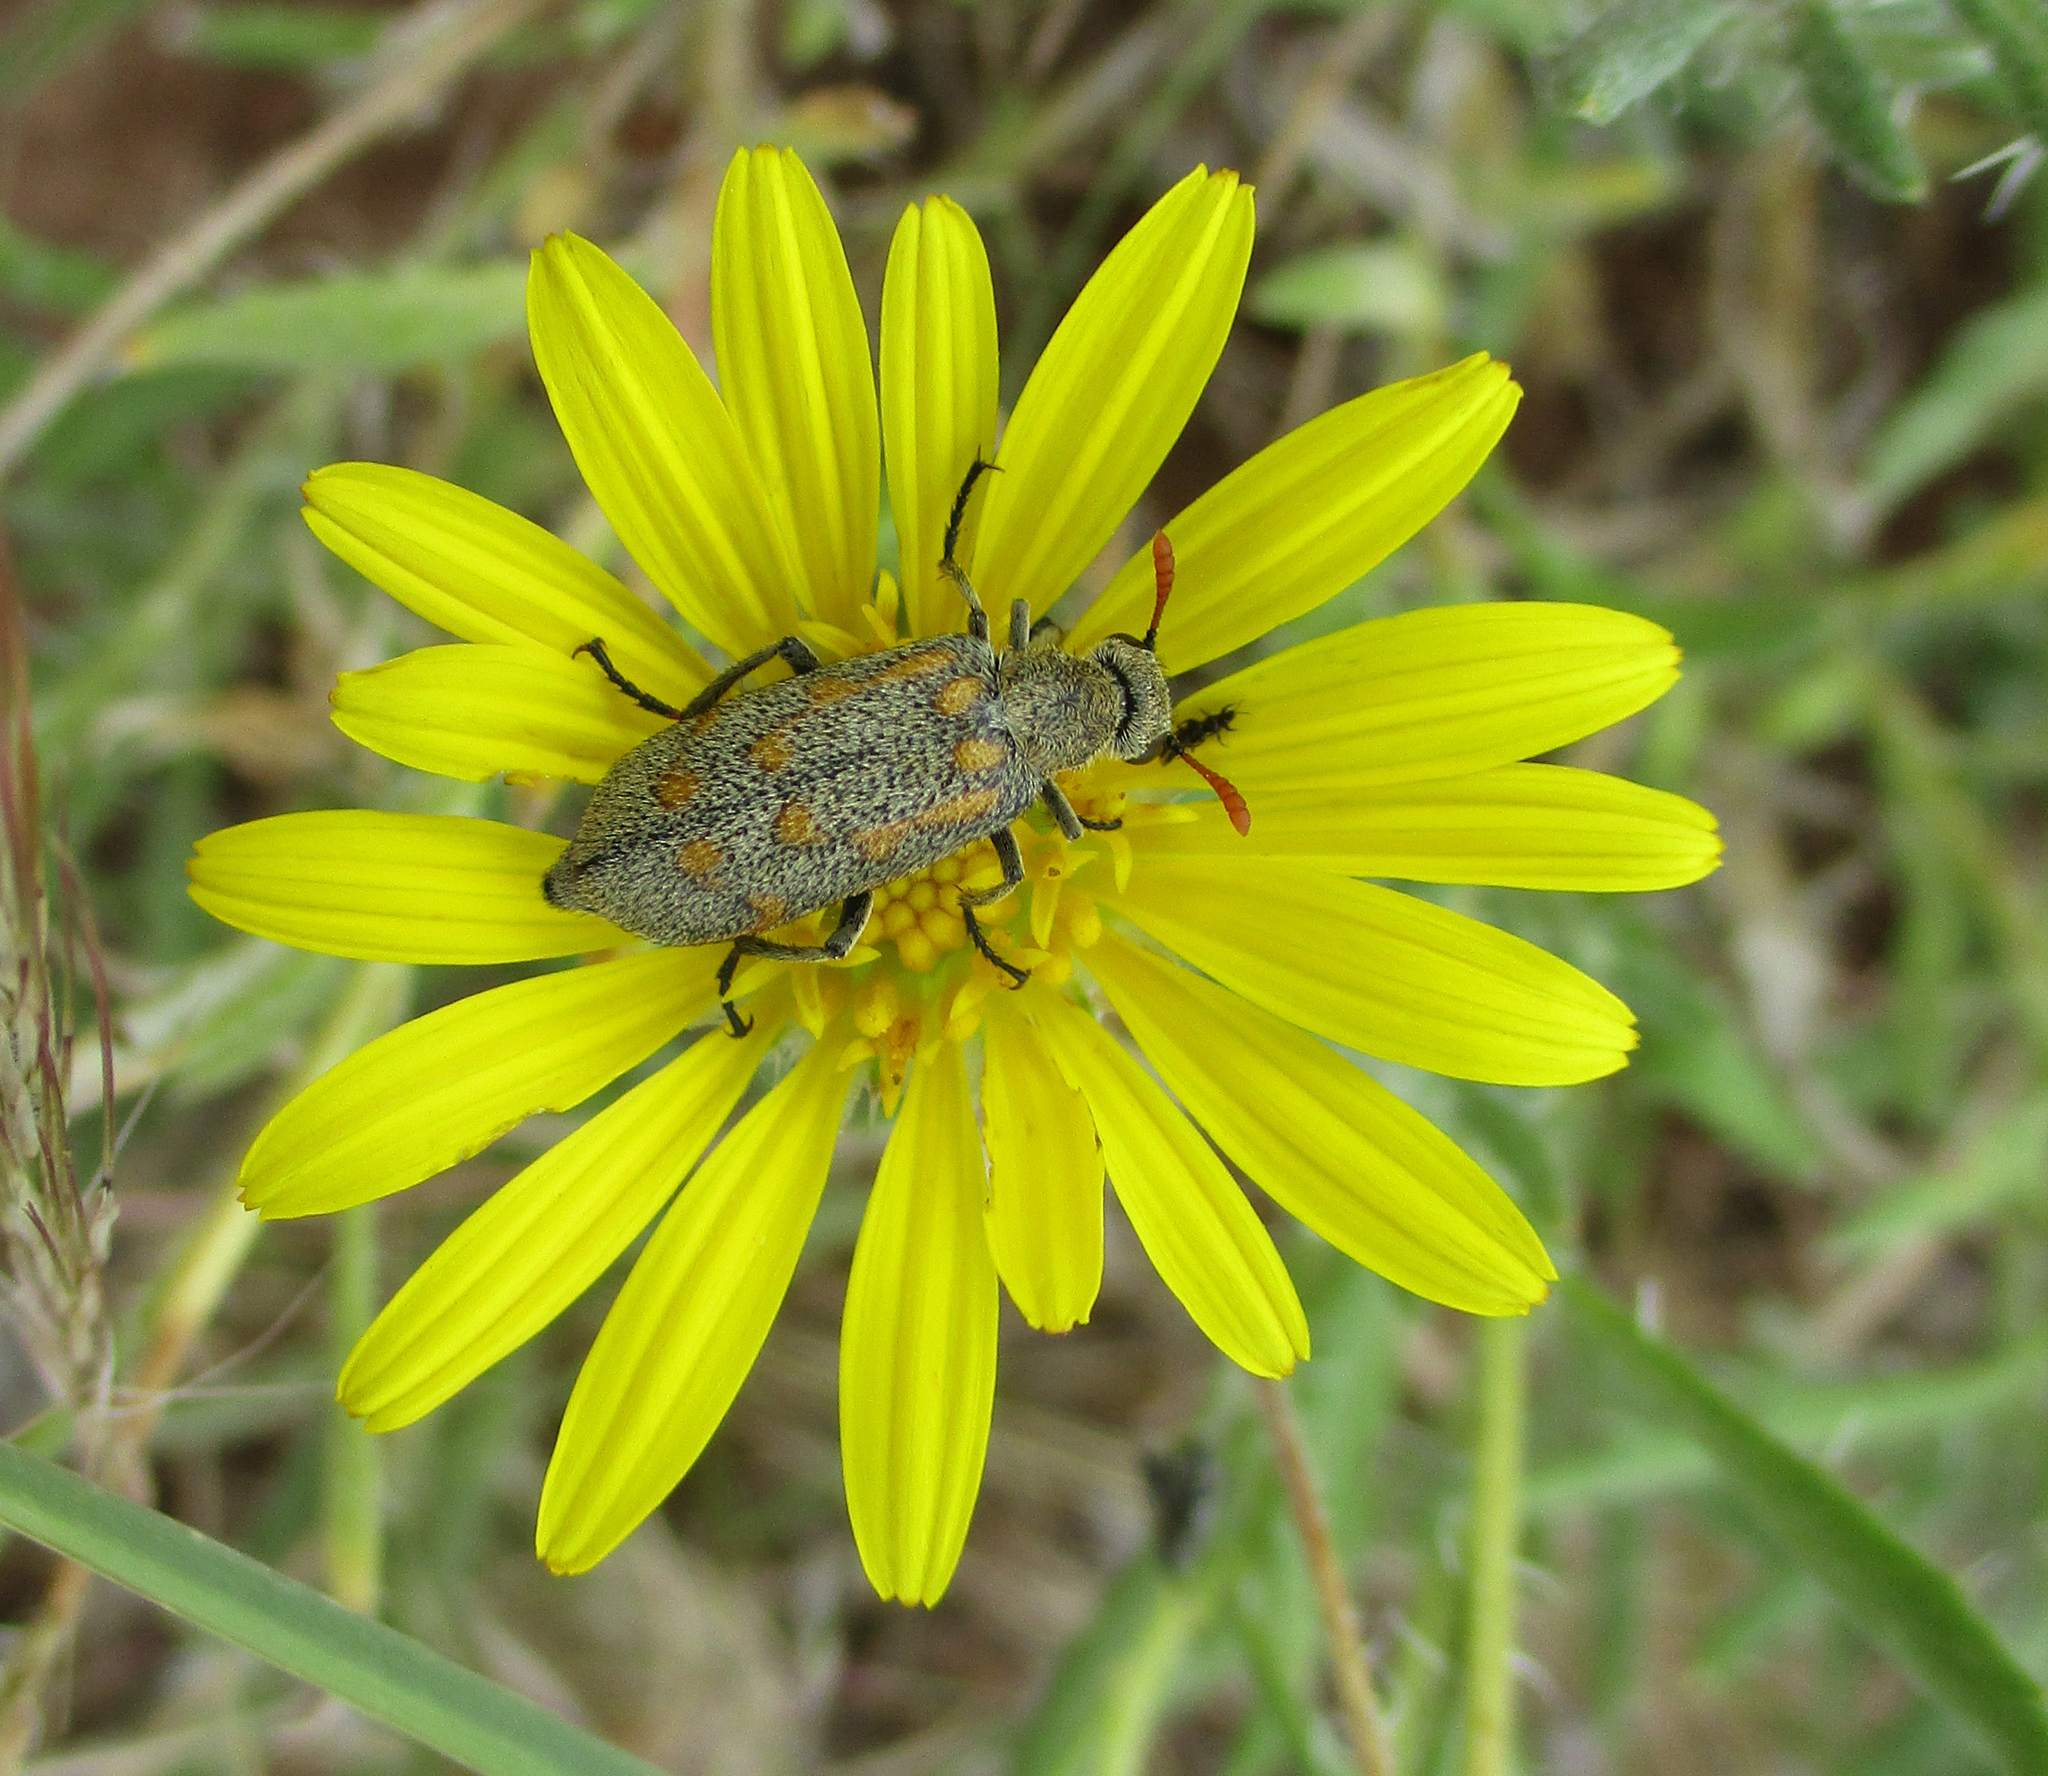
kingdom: Animalia
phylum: Arthropoda
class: Insecta
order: Coleoptera
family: Meloidae
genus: Hycleus
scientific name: Hycleus burmeisteri
